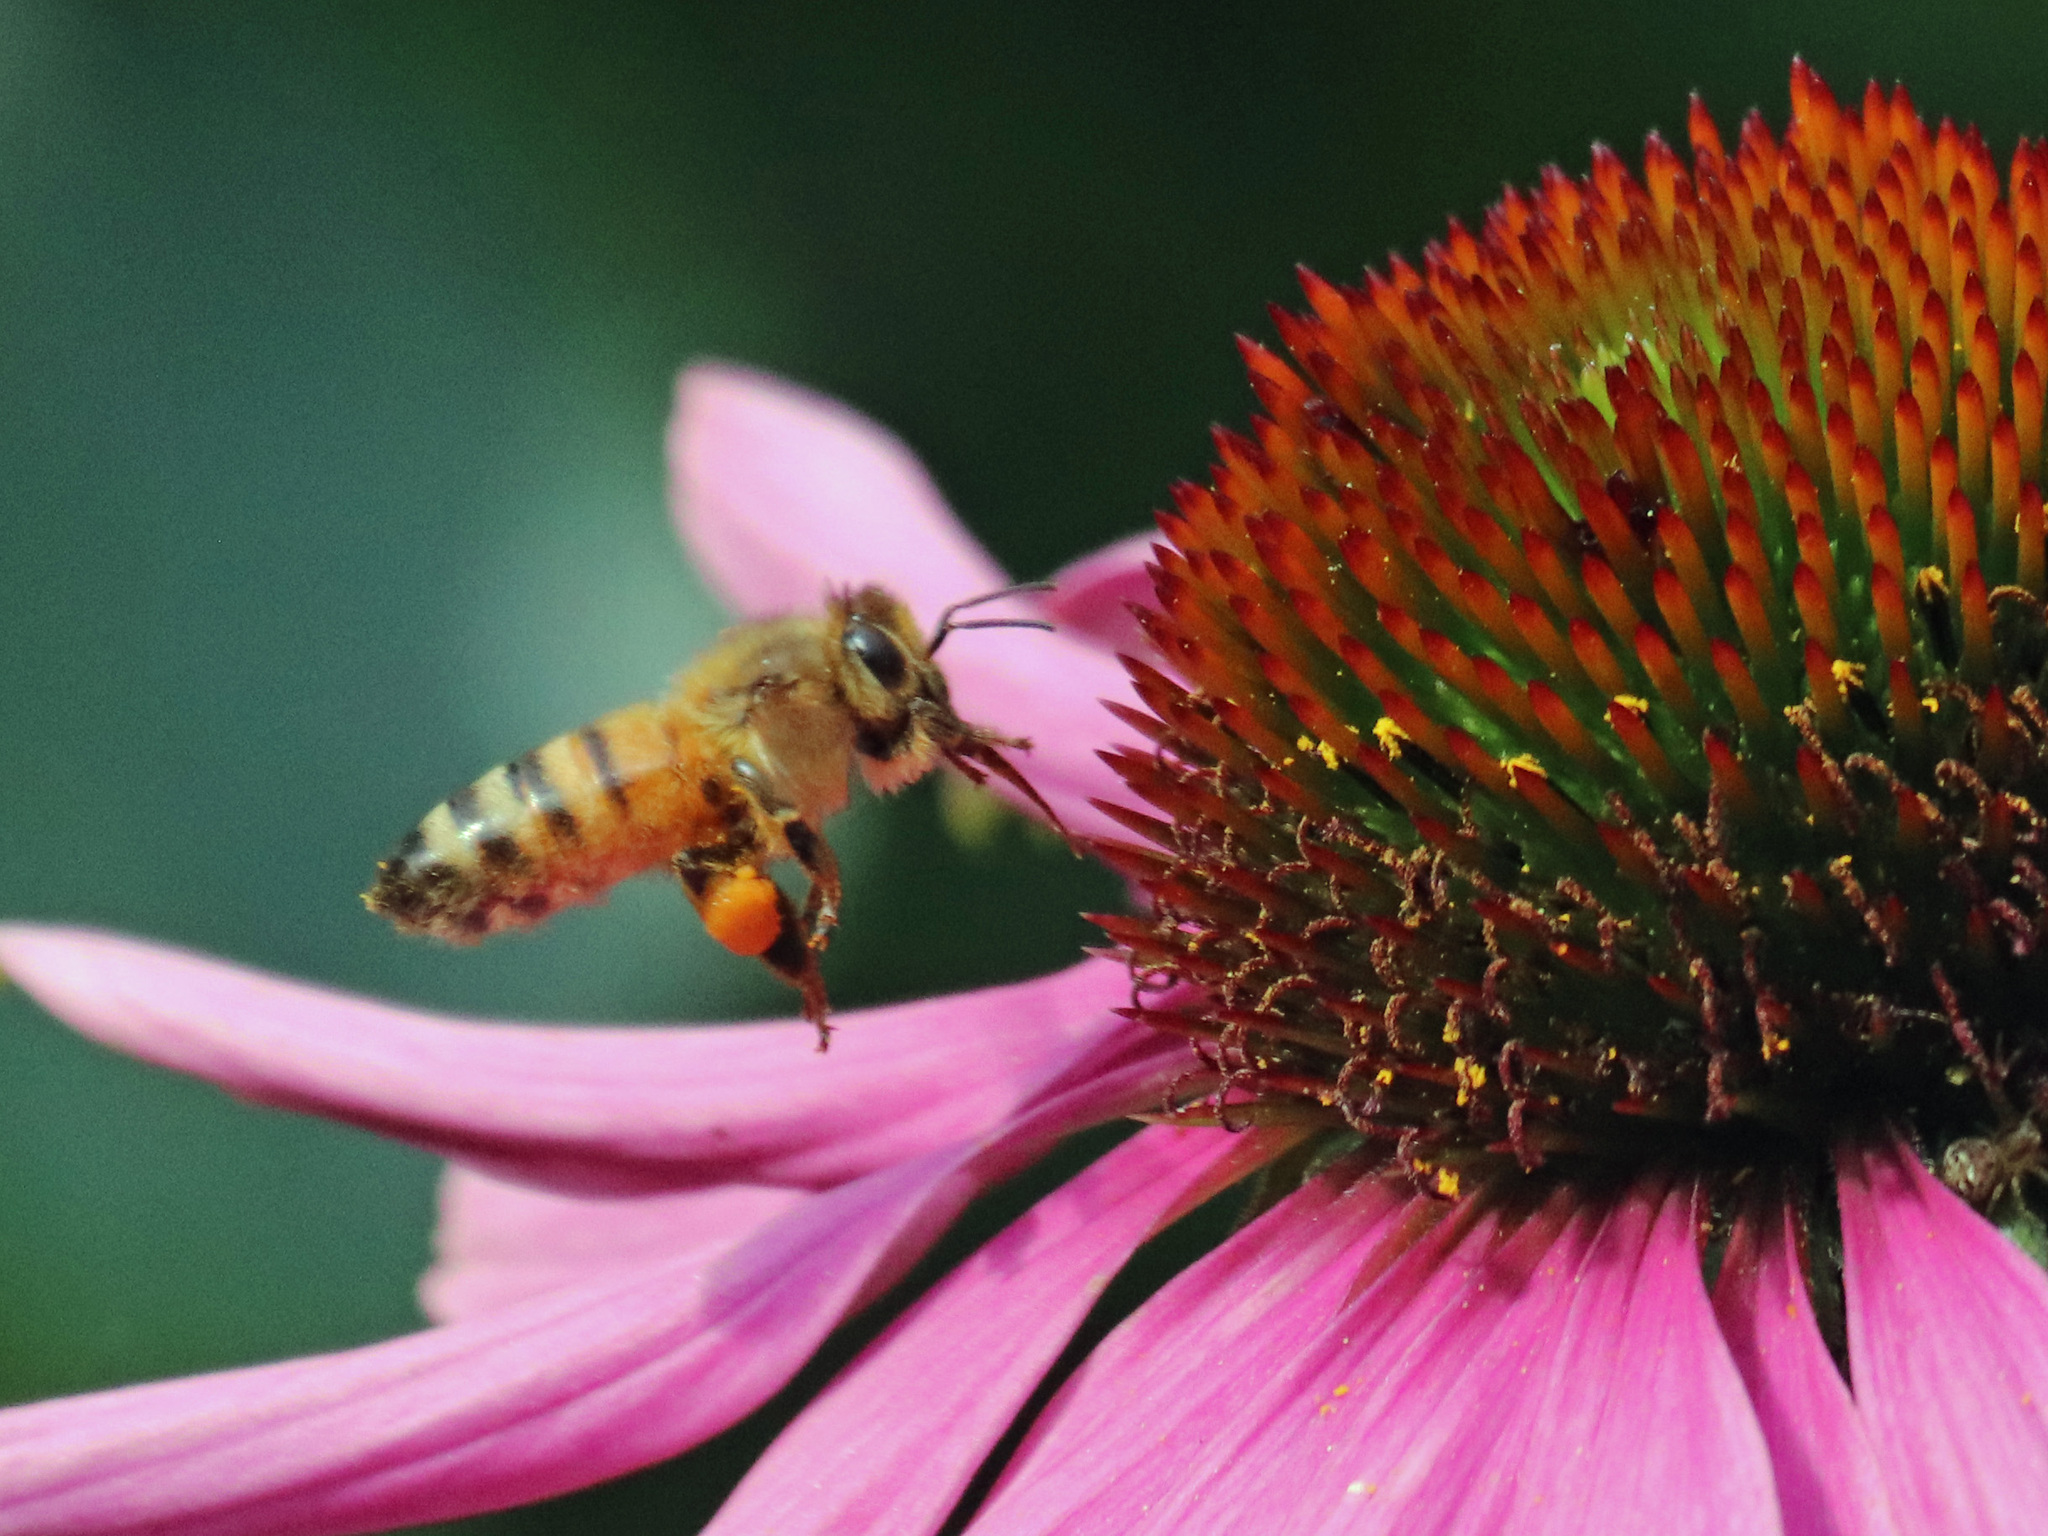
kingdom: Animalia
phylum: Arthropoda
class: Insecta
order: Hymenoptera
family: Apidae
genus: Apis
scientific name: Apis mellifera
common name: Honey bee
